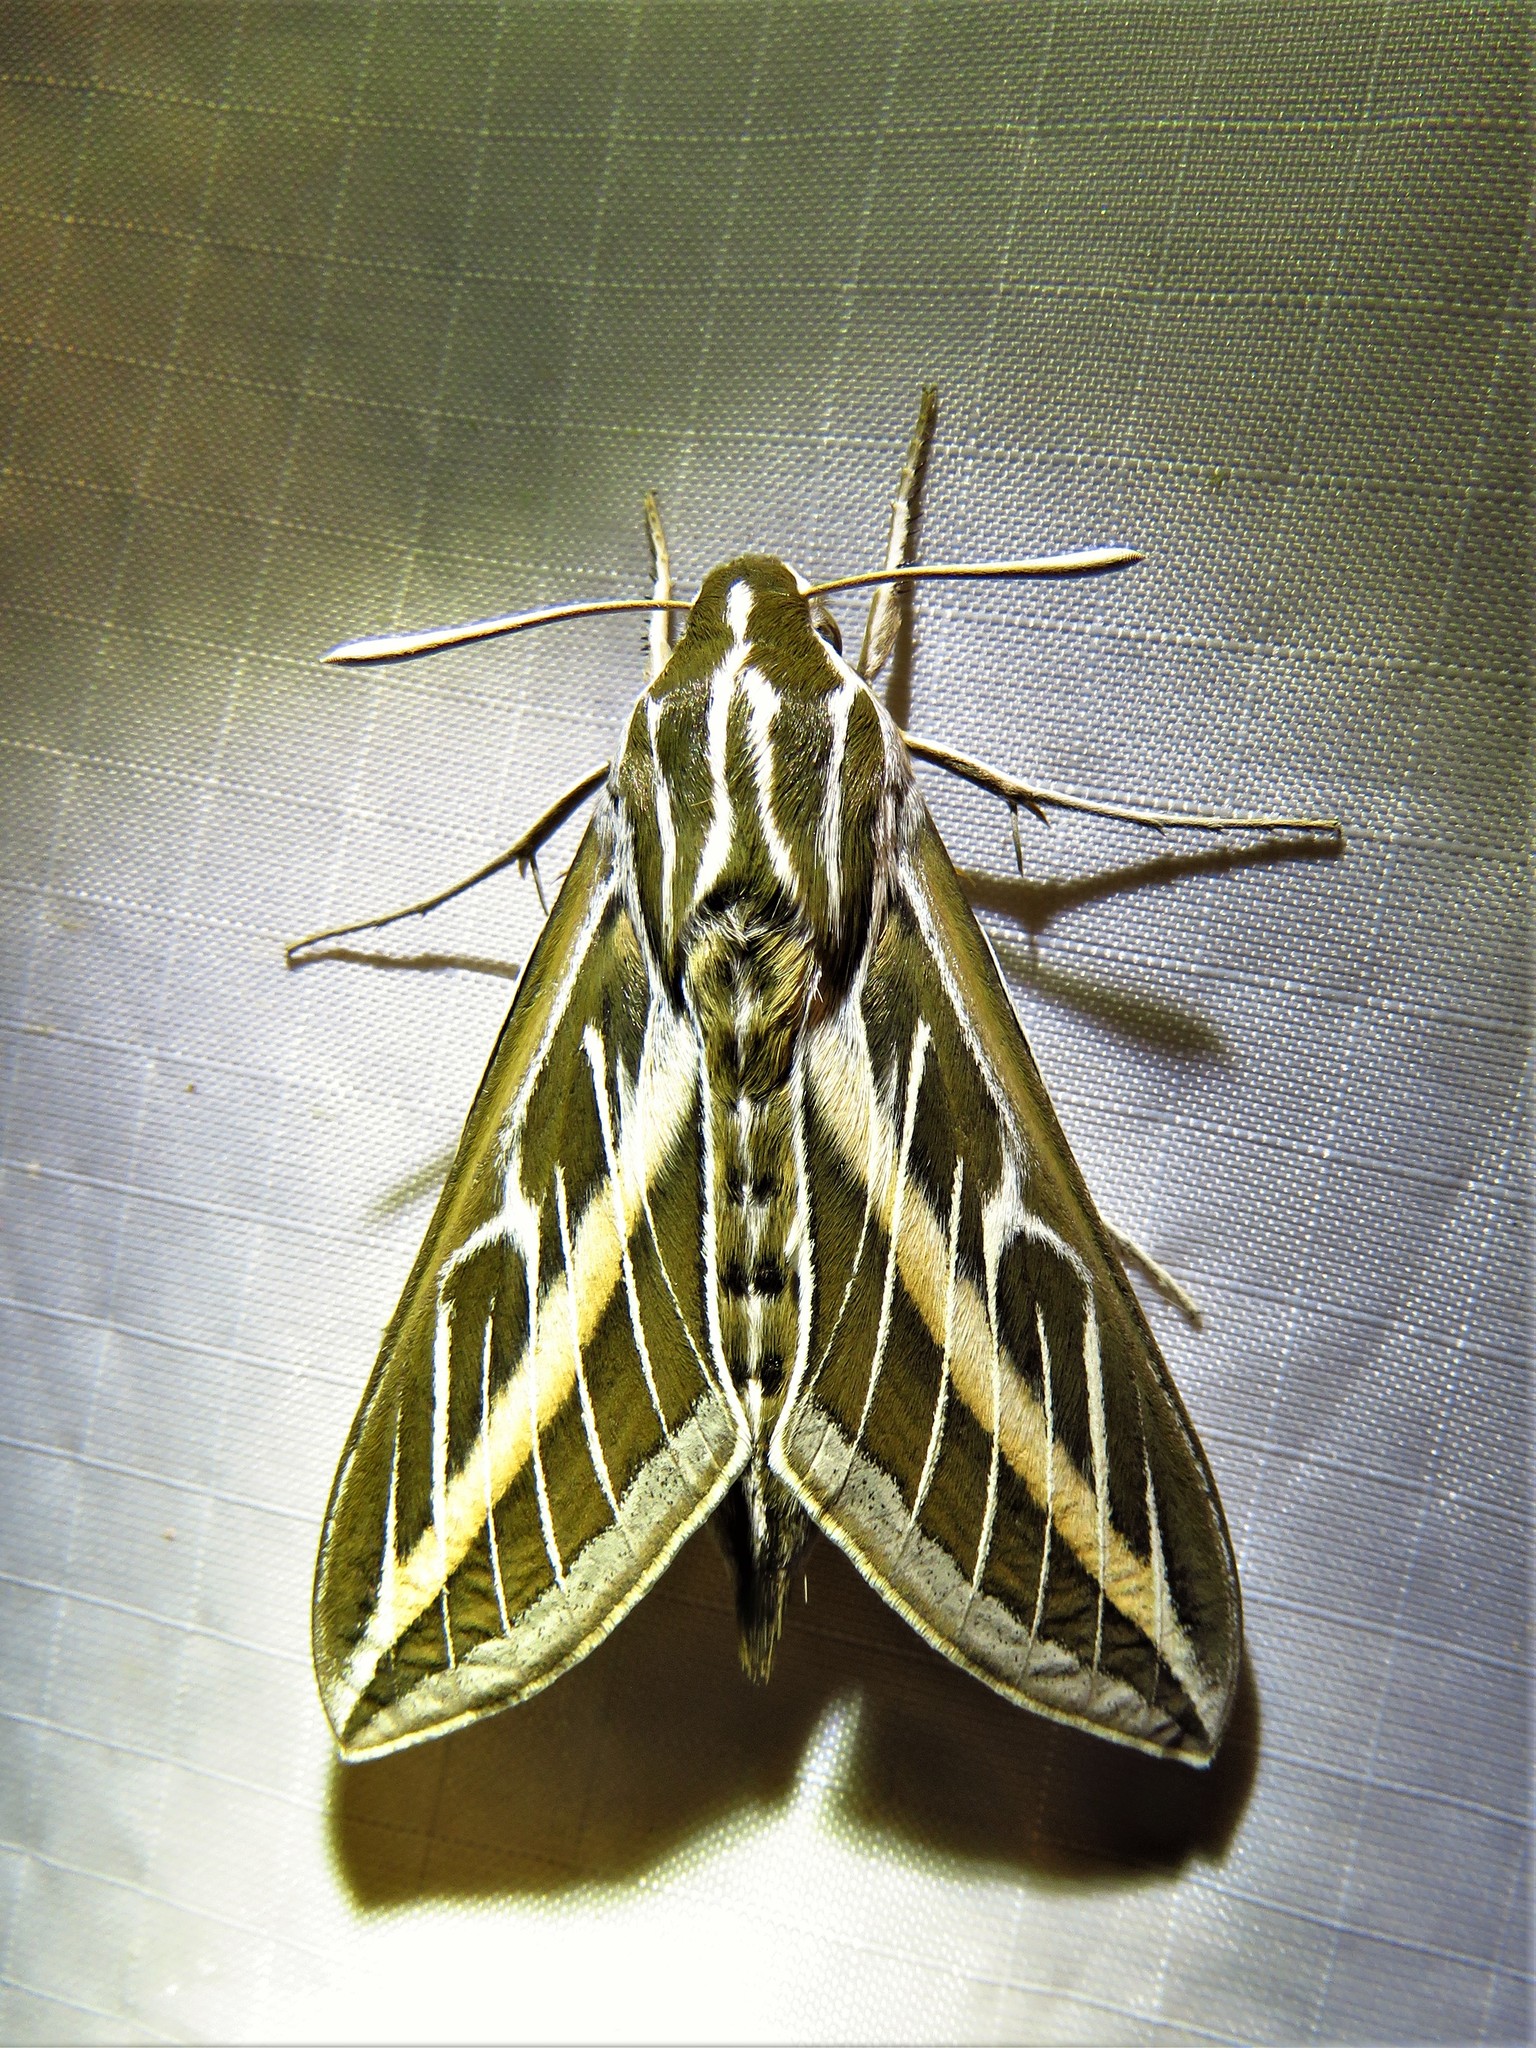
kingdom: Animalia
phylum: Arthropoda
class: Insecta
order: Lepidoptera
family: Sphingidae
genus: Hyles
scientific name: Hyles lineata
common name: White-lined sphinx
